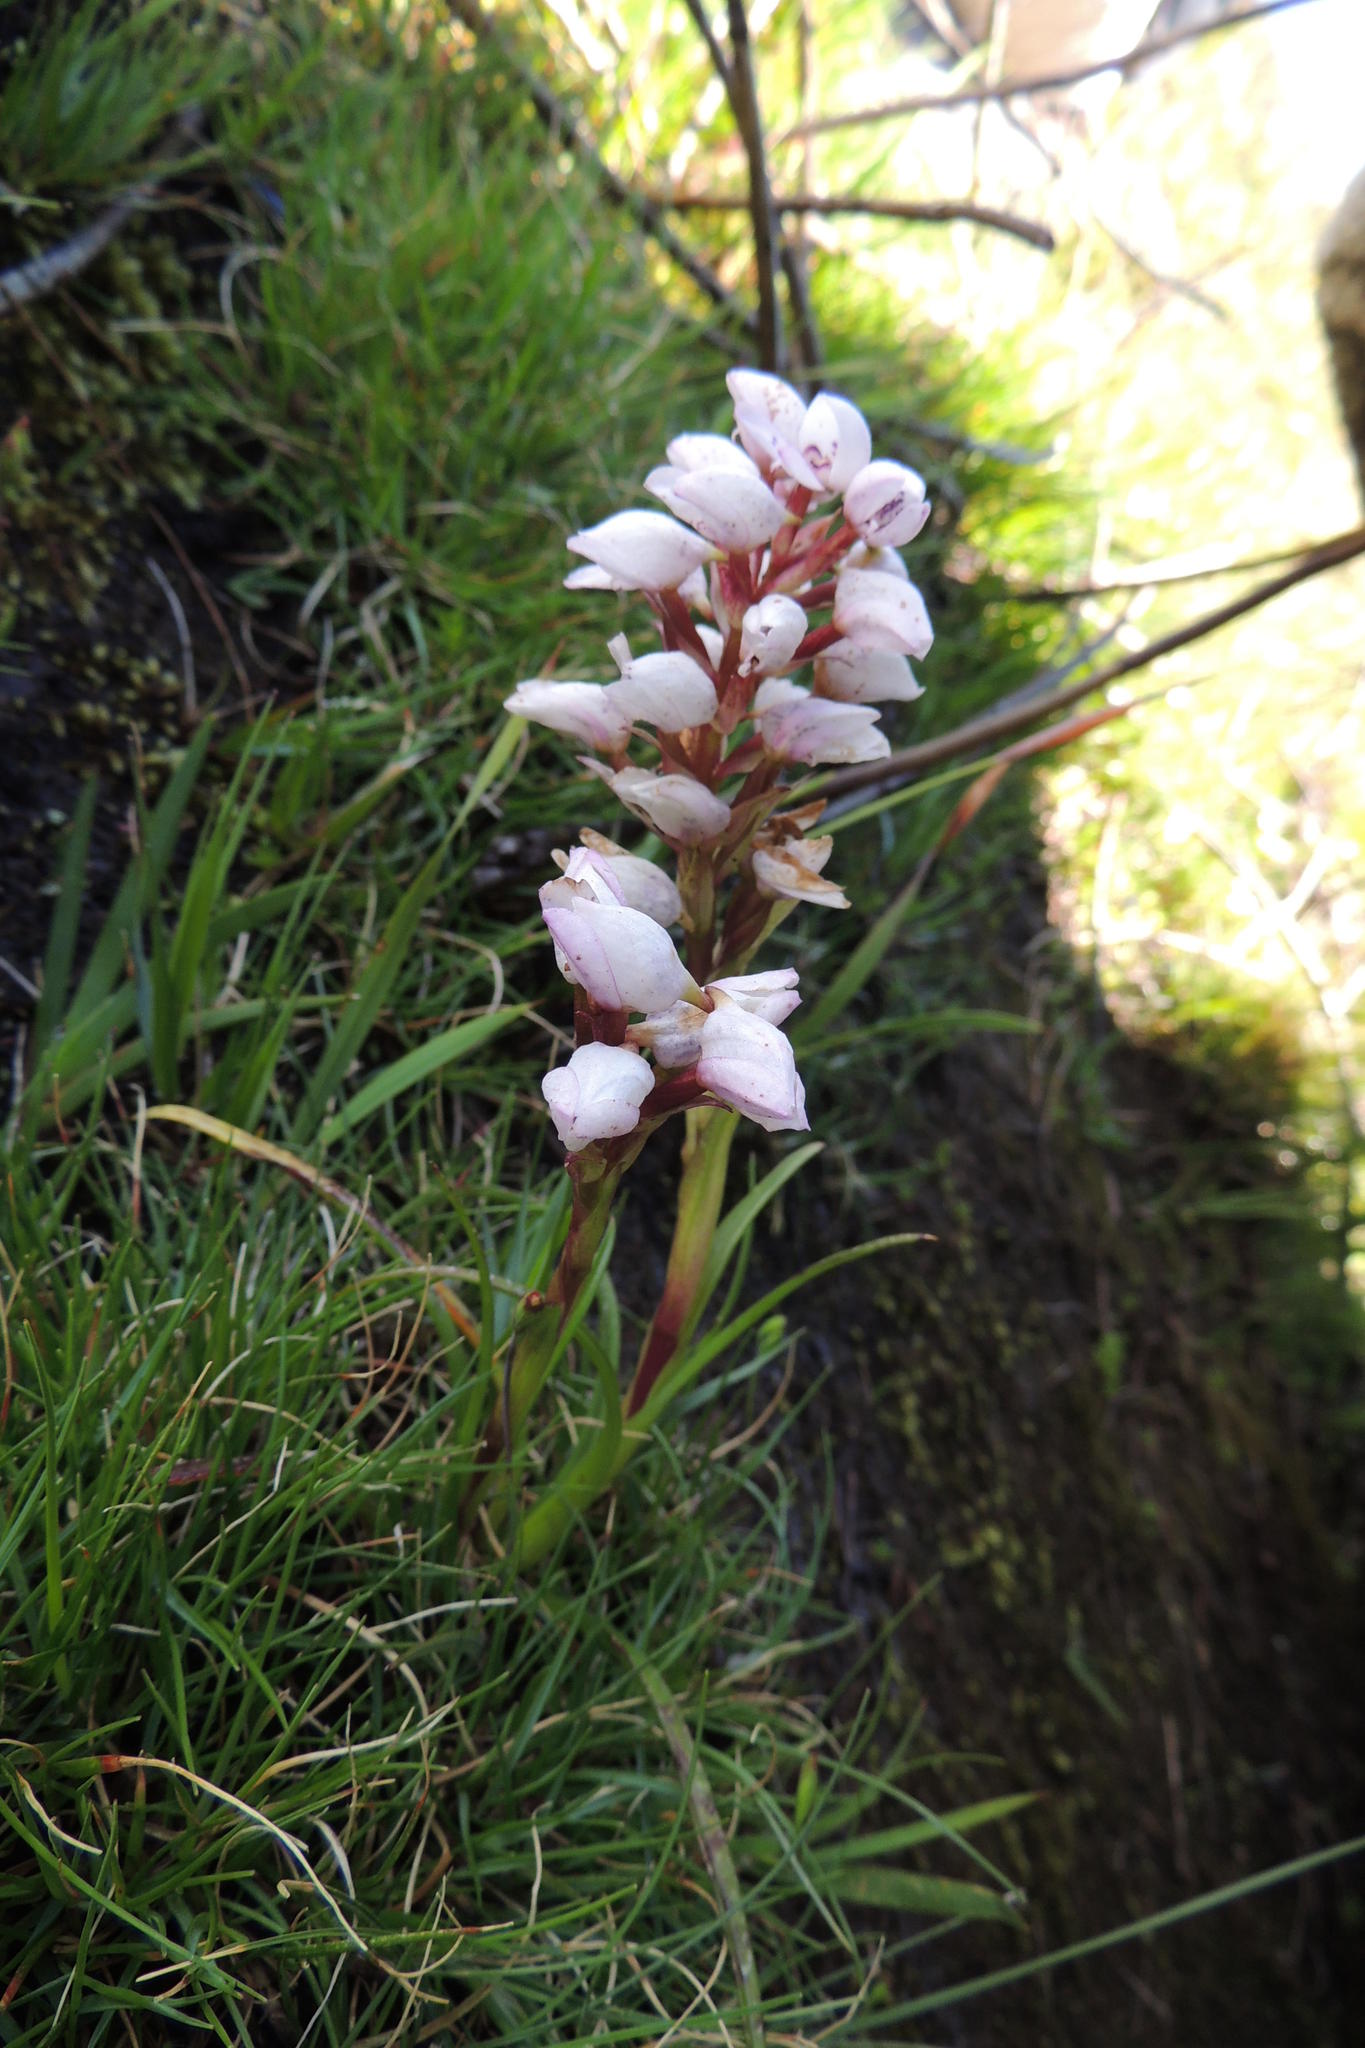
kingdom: Plantae
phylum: Tracheophyta
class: Liliopsida
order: Asparagales
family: Orchidaceae
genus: Disa
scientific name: Disa subtenuicornis
